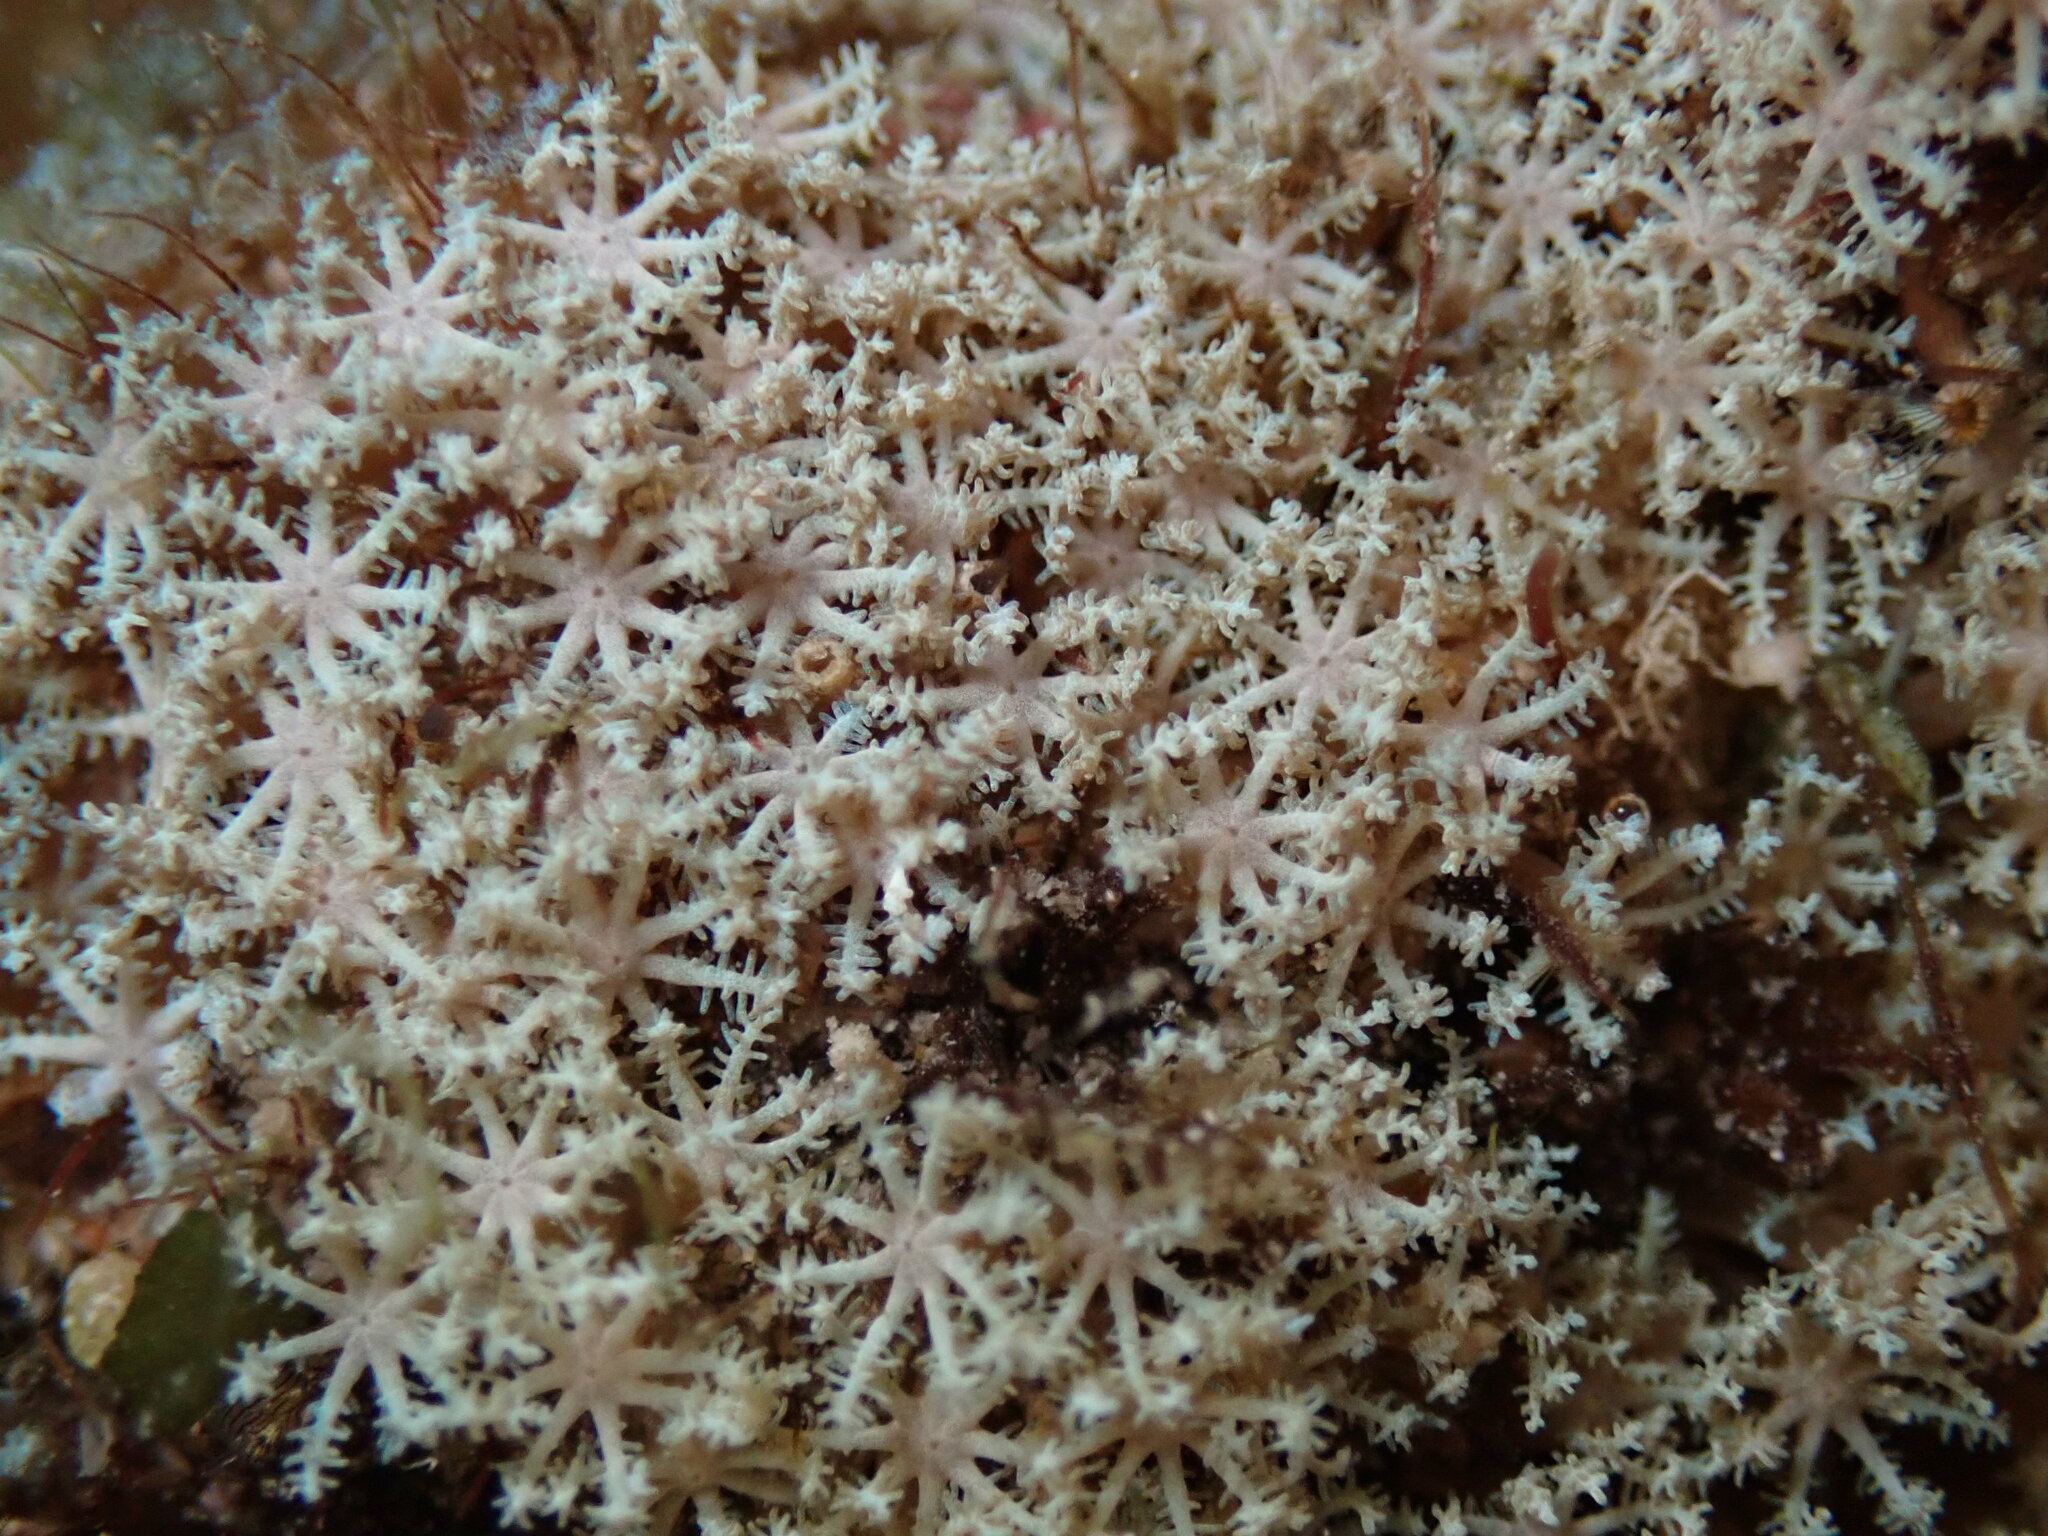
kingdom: Animalia
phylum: Cnidaria
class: Anthozoa
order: Malacalcyonacea
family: Xeniidae
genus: Sarcothelia
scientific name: Sarcothelia edmondsoni
